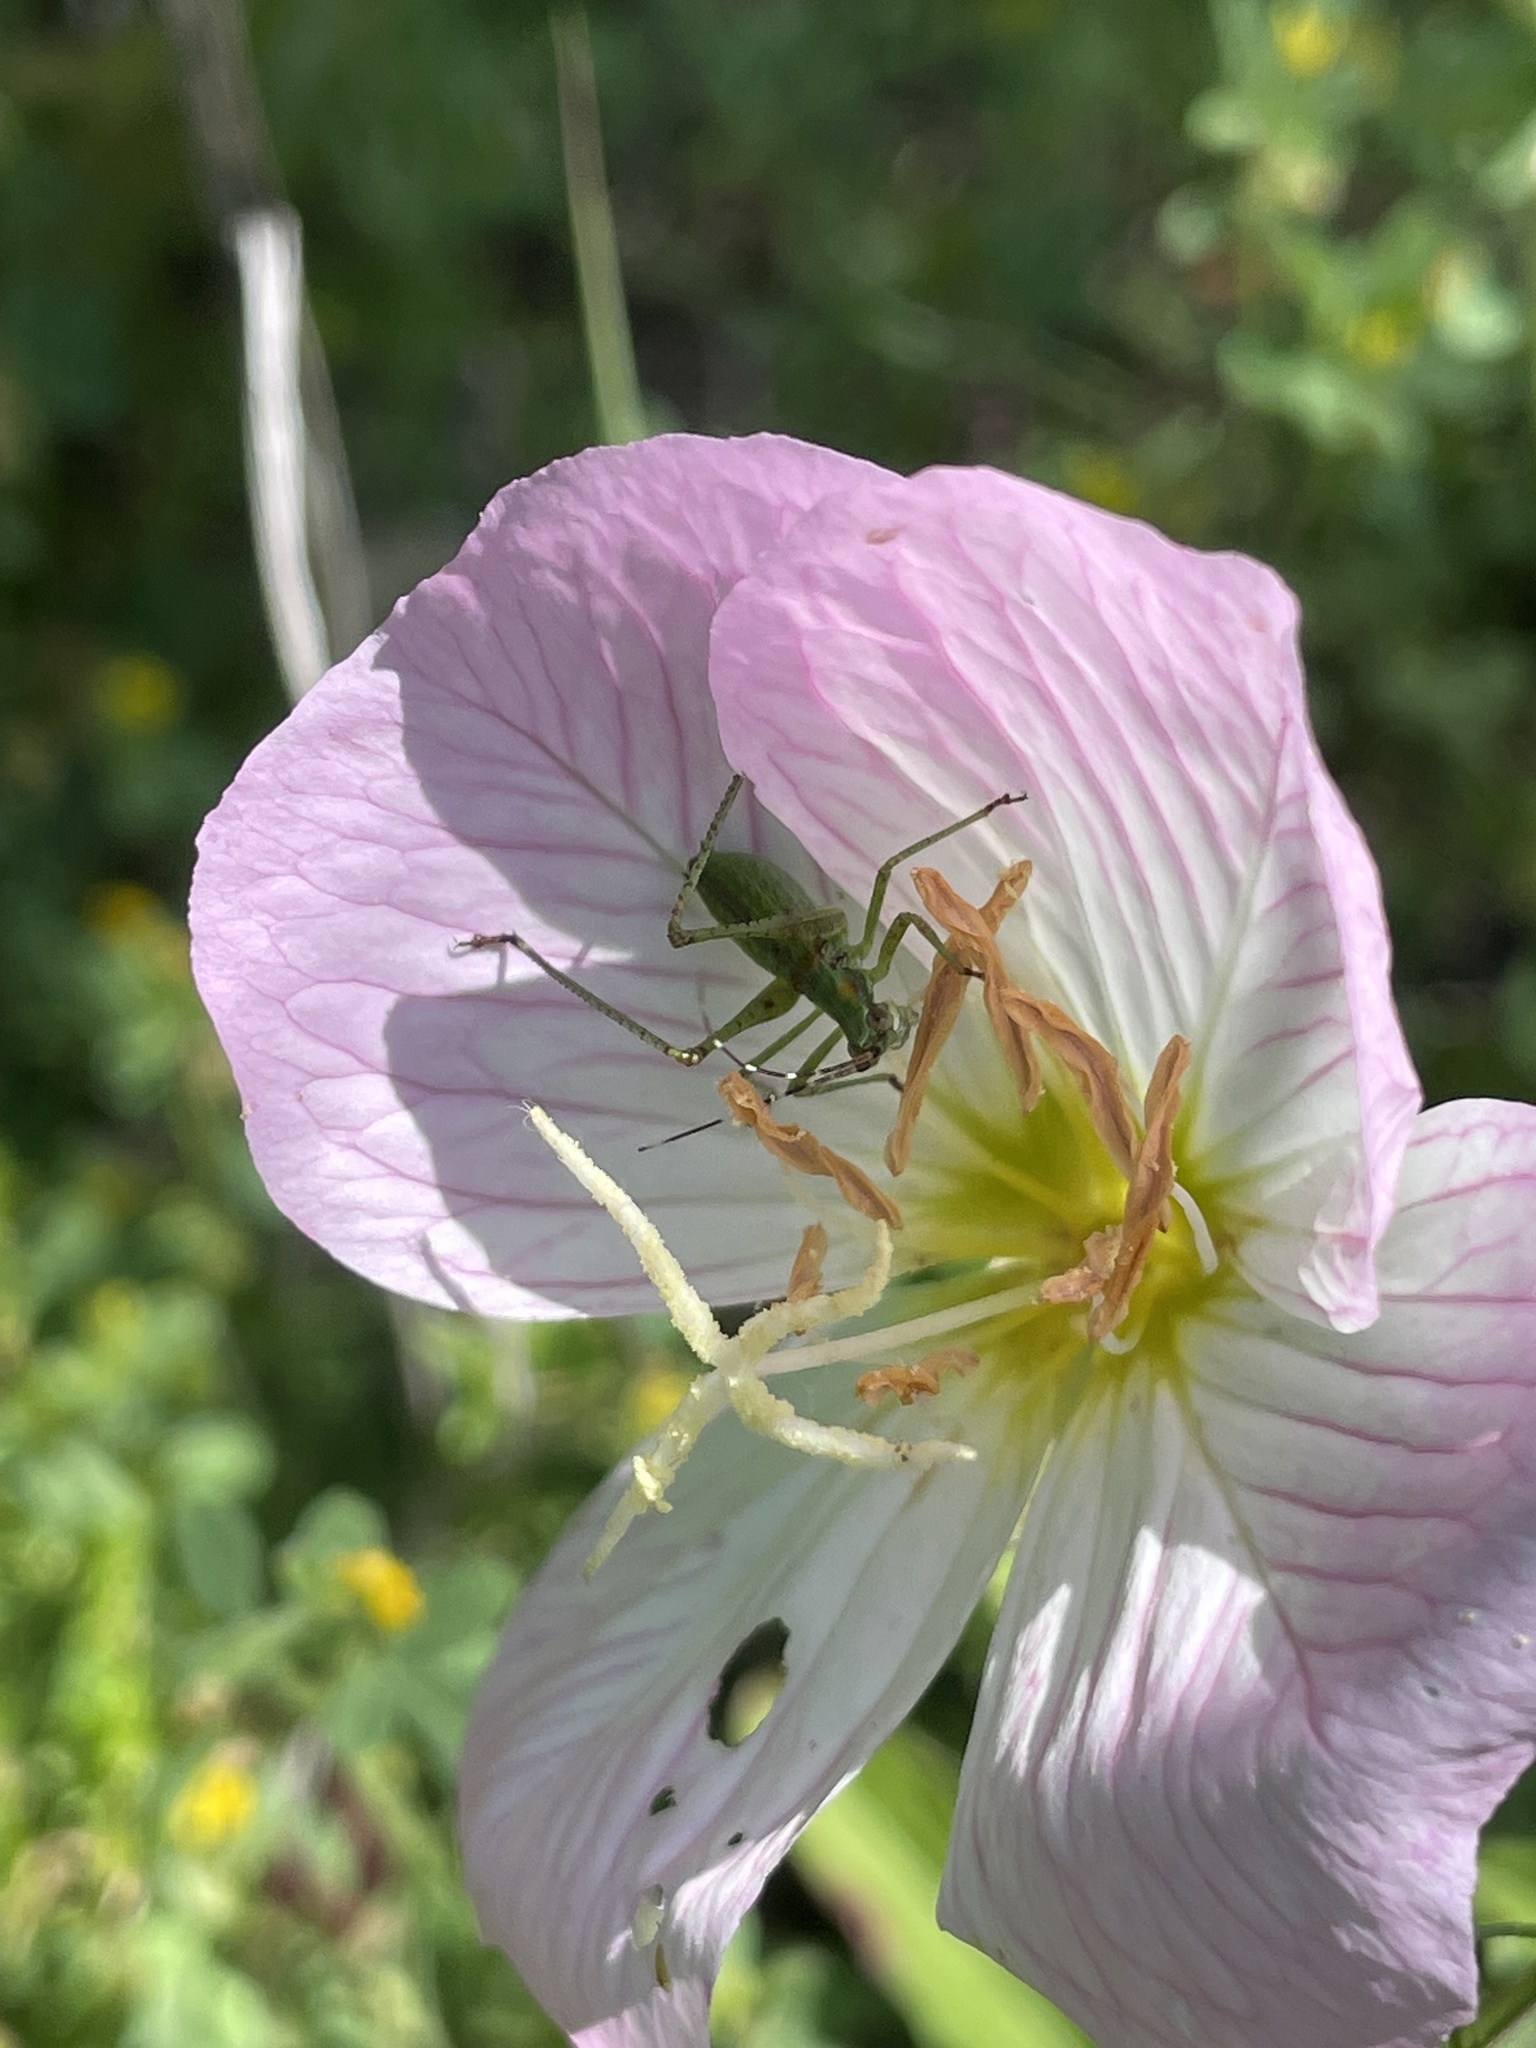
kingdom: Animalia
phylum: Arthropoda
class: Insecta
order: Orthoptera
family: Tettigoniidae
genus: Scudderia
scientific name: Scudderia furcata
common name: Fork-tailed bush katydid
